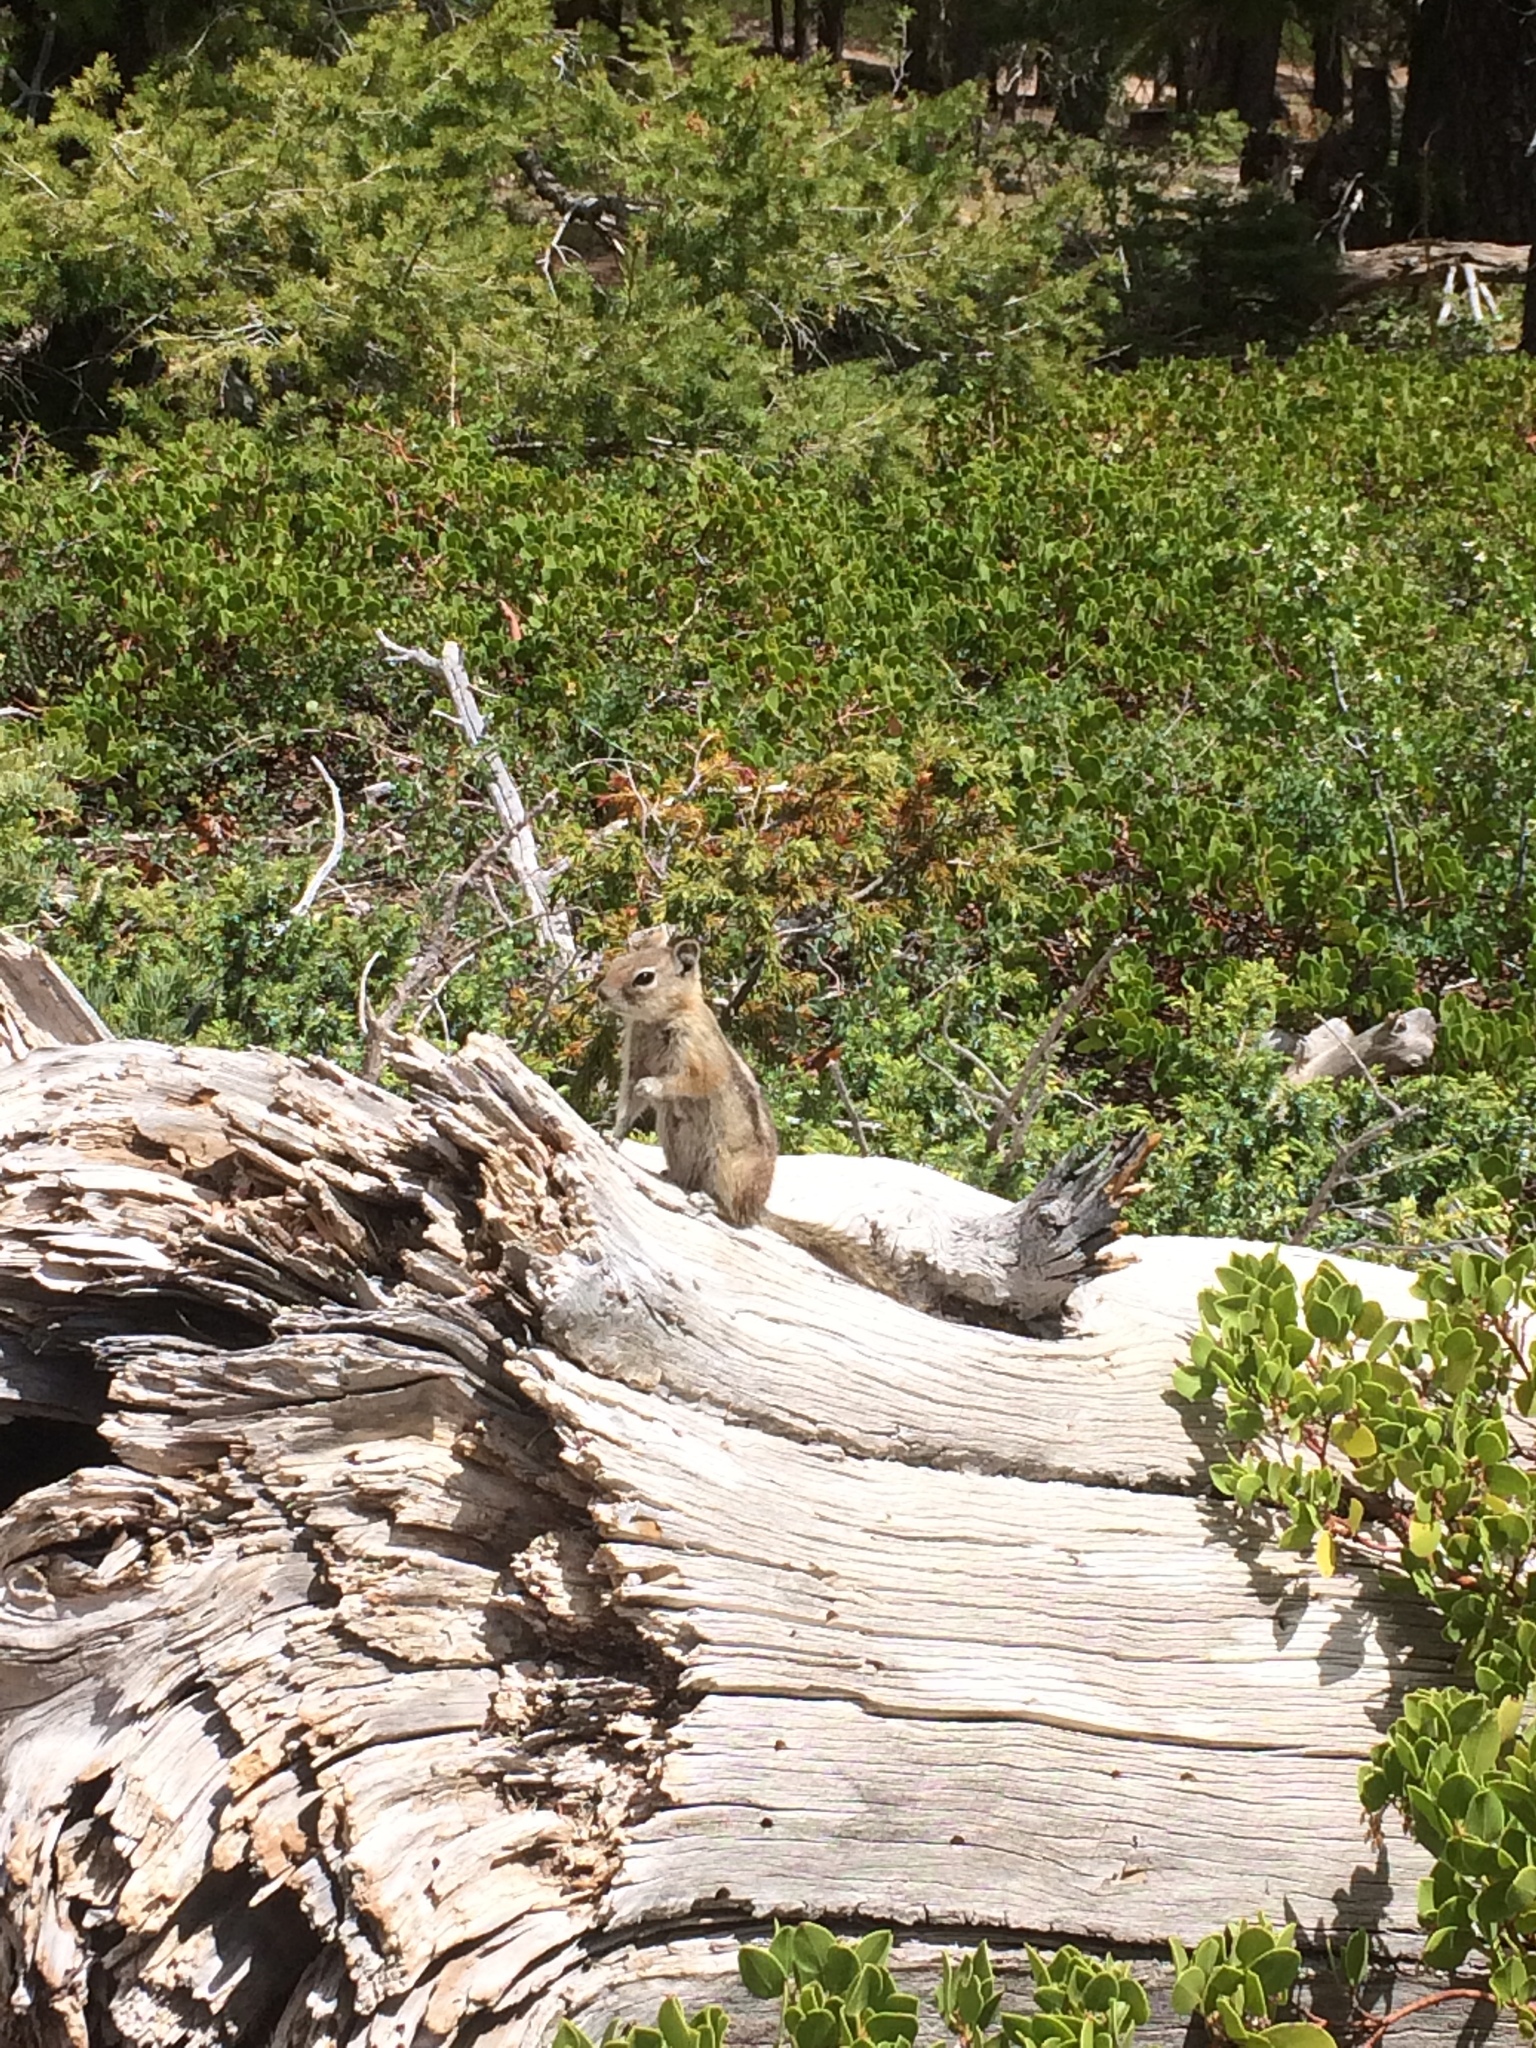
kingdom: Animalia
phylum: Chordata
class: Mammalia
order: Rodentia
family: Sciuridae
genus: Callospermophilus
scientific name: Callospermophilus lateralis
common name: Golden-mantled ground squirrel
